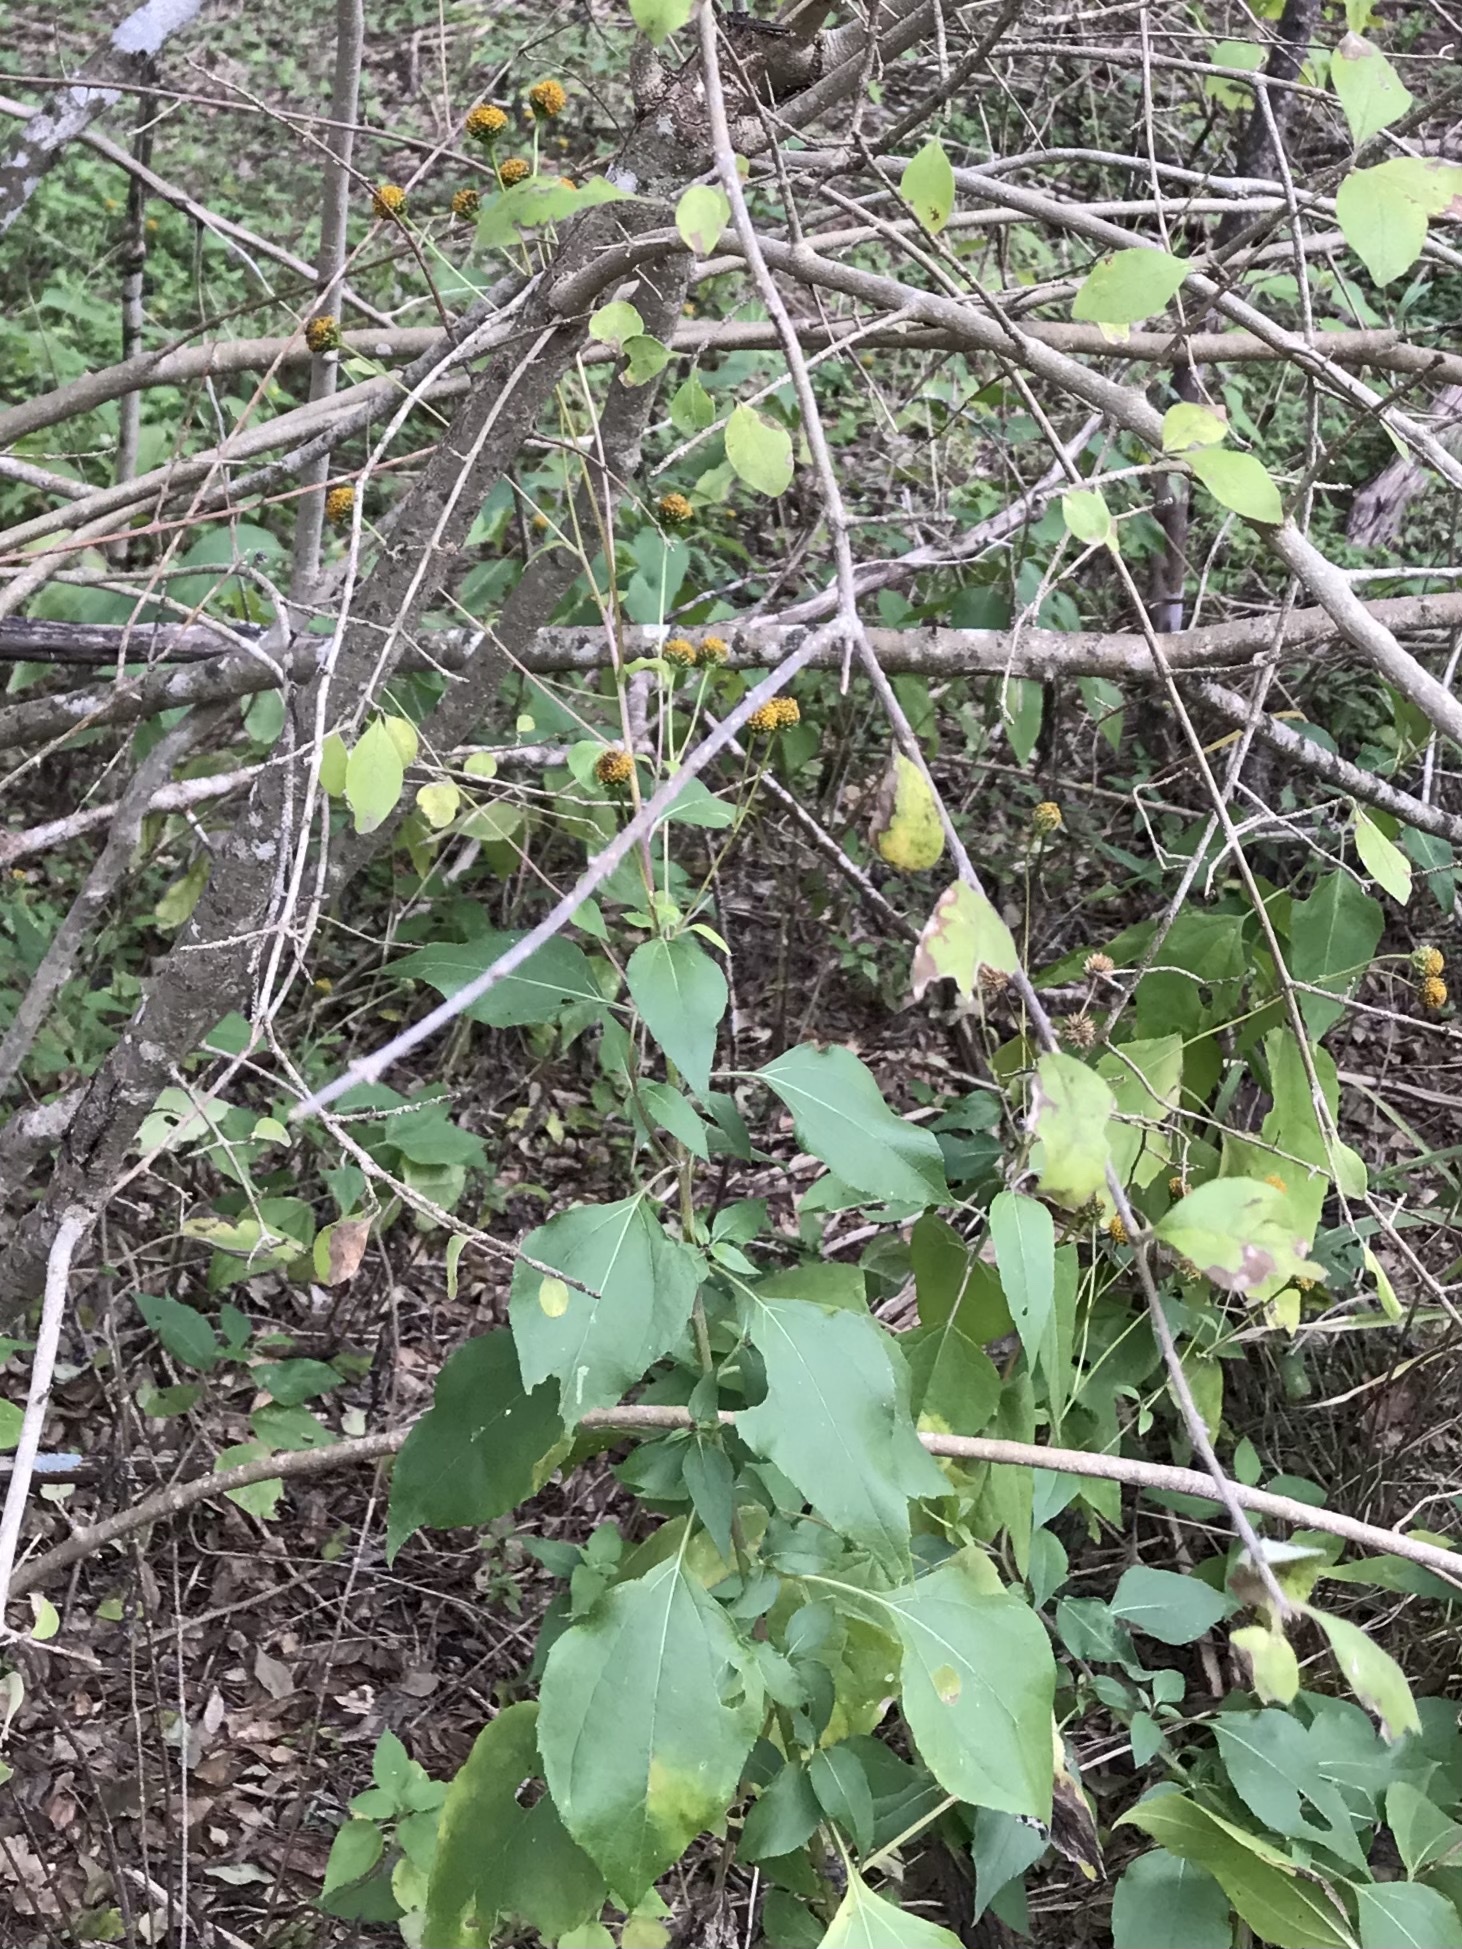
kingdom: Plantae
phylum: Tracheophyta
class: Magnoliopsida
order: Asterales
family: Asteraceae
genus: Viguiera
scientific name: Viguiera dentata
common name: Toothleaf
